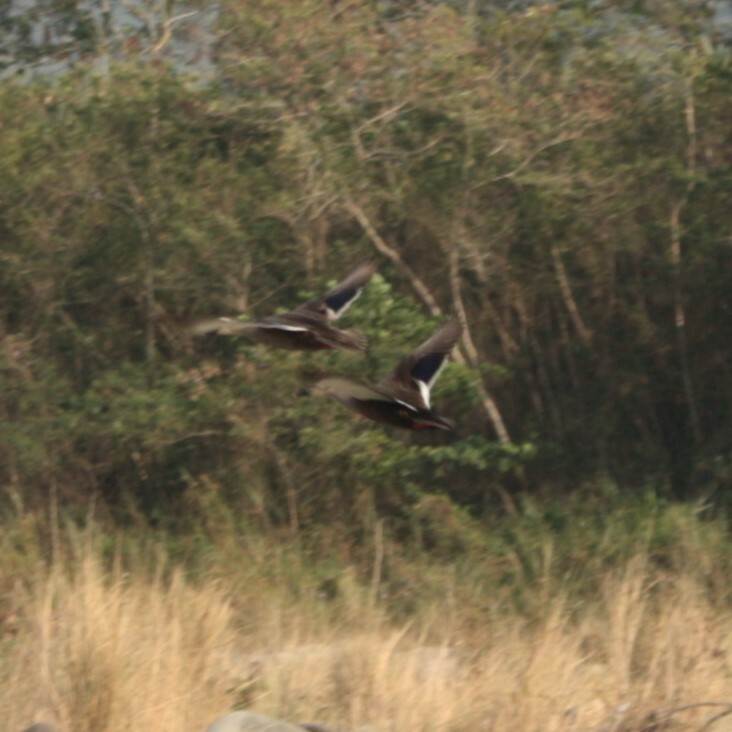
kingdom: Animalia
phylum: Chordata
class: Aves
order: Anseriformes
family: Anatidae
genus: Anas
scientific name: Anas zonorhyncha
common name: Eastern spot-billed duck
